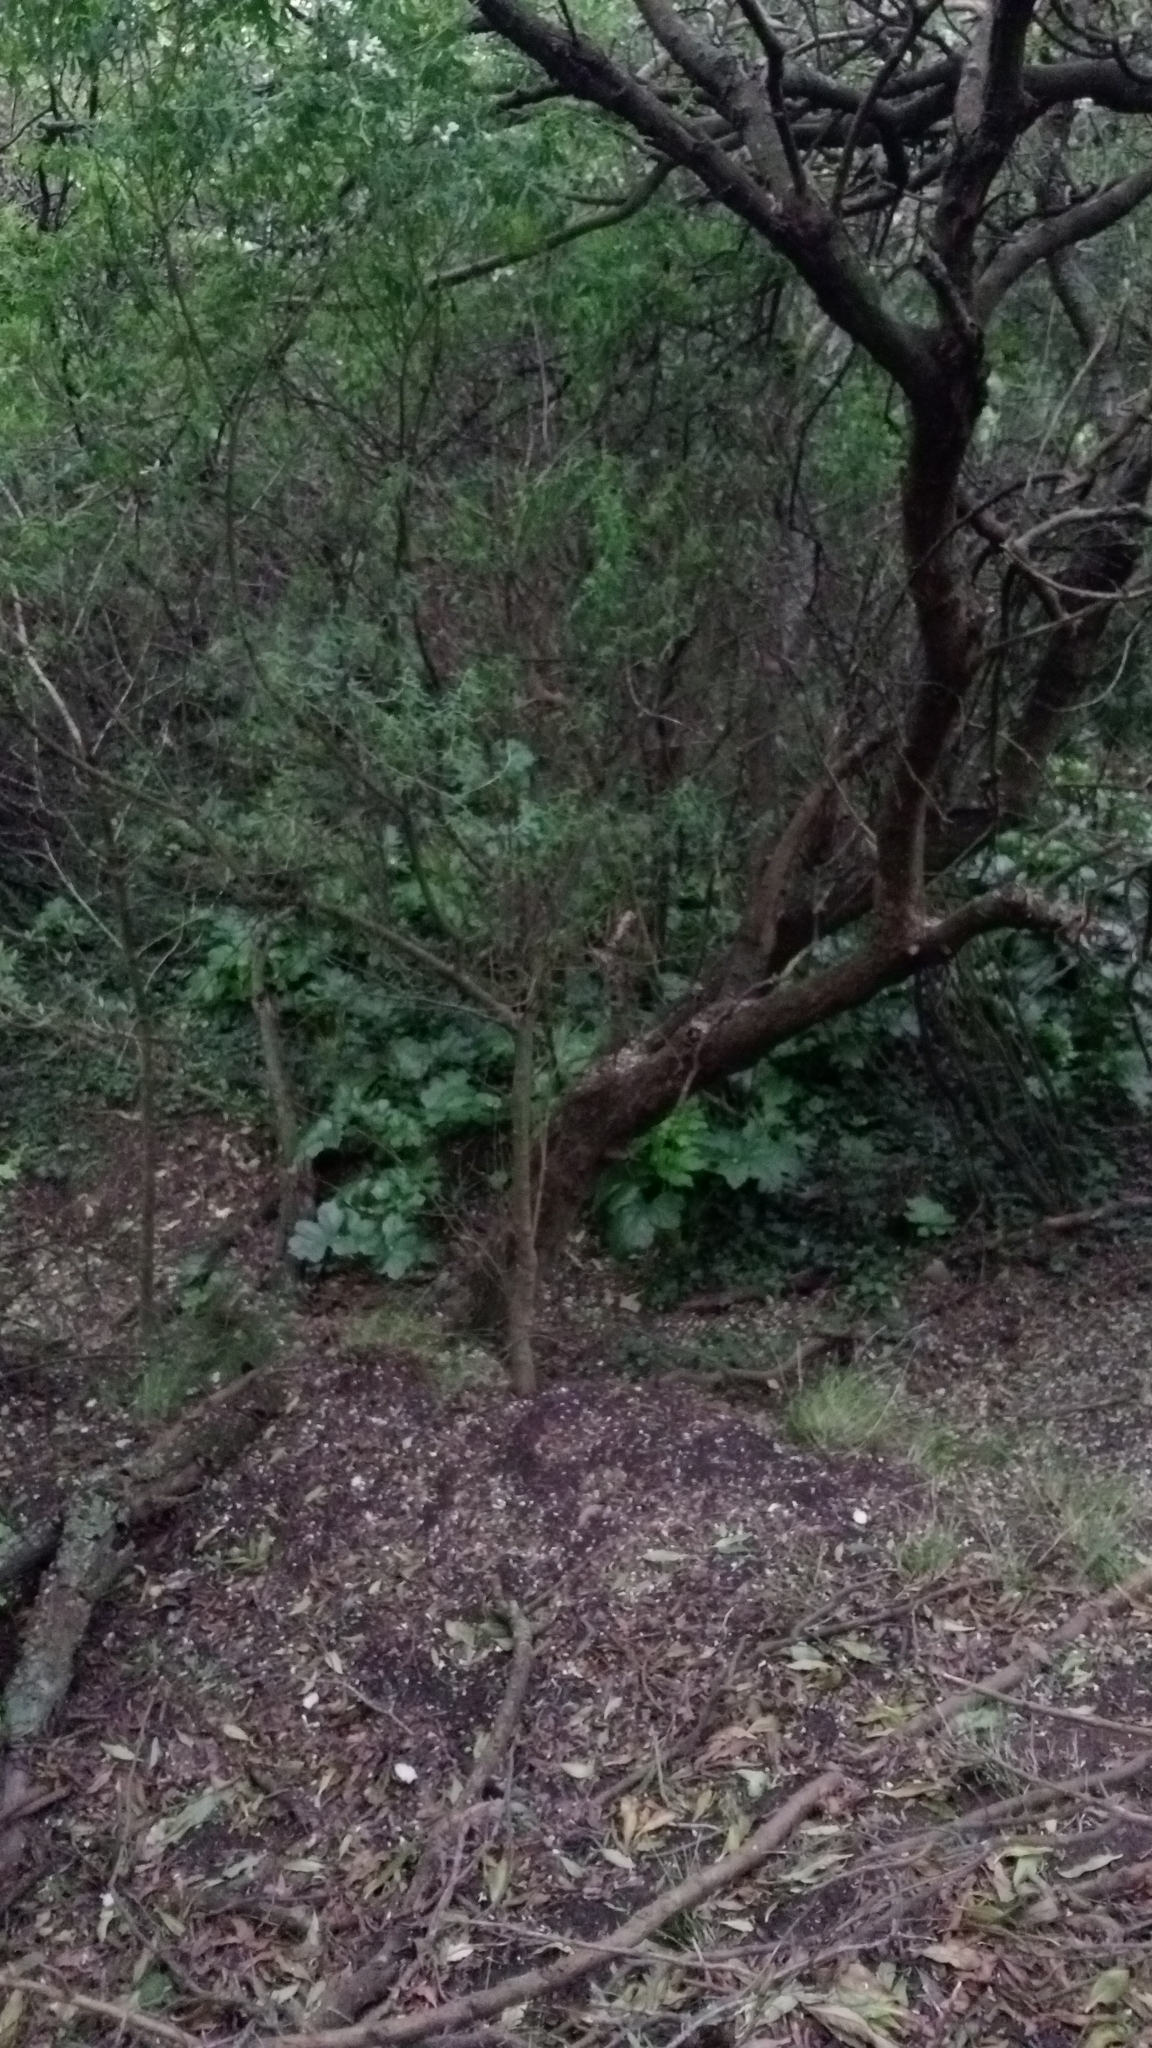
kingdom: Plantae
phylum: Tracheophyta
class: Magnoliopsida
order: Lamiales
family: Acanthaceae
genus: Acanthus
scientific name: Acanthus mollis
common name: Bear's-breech
